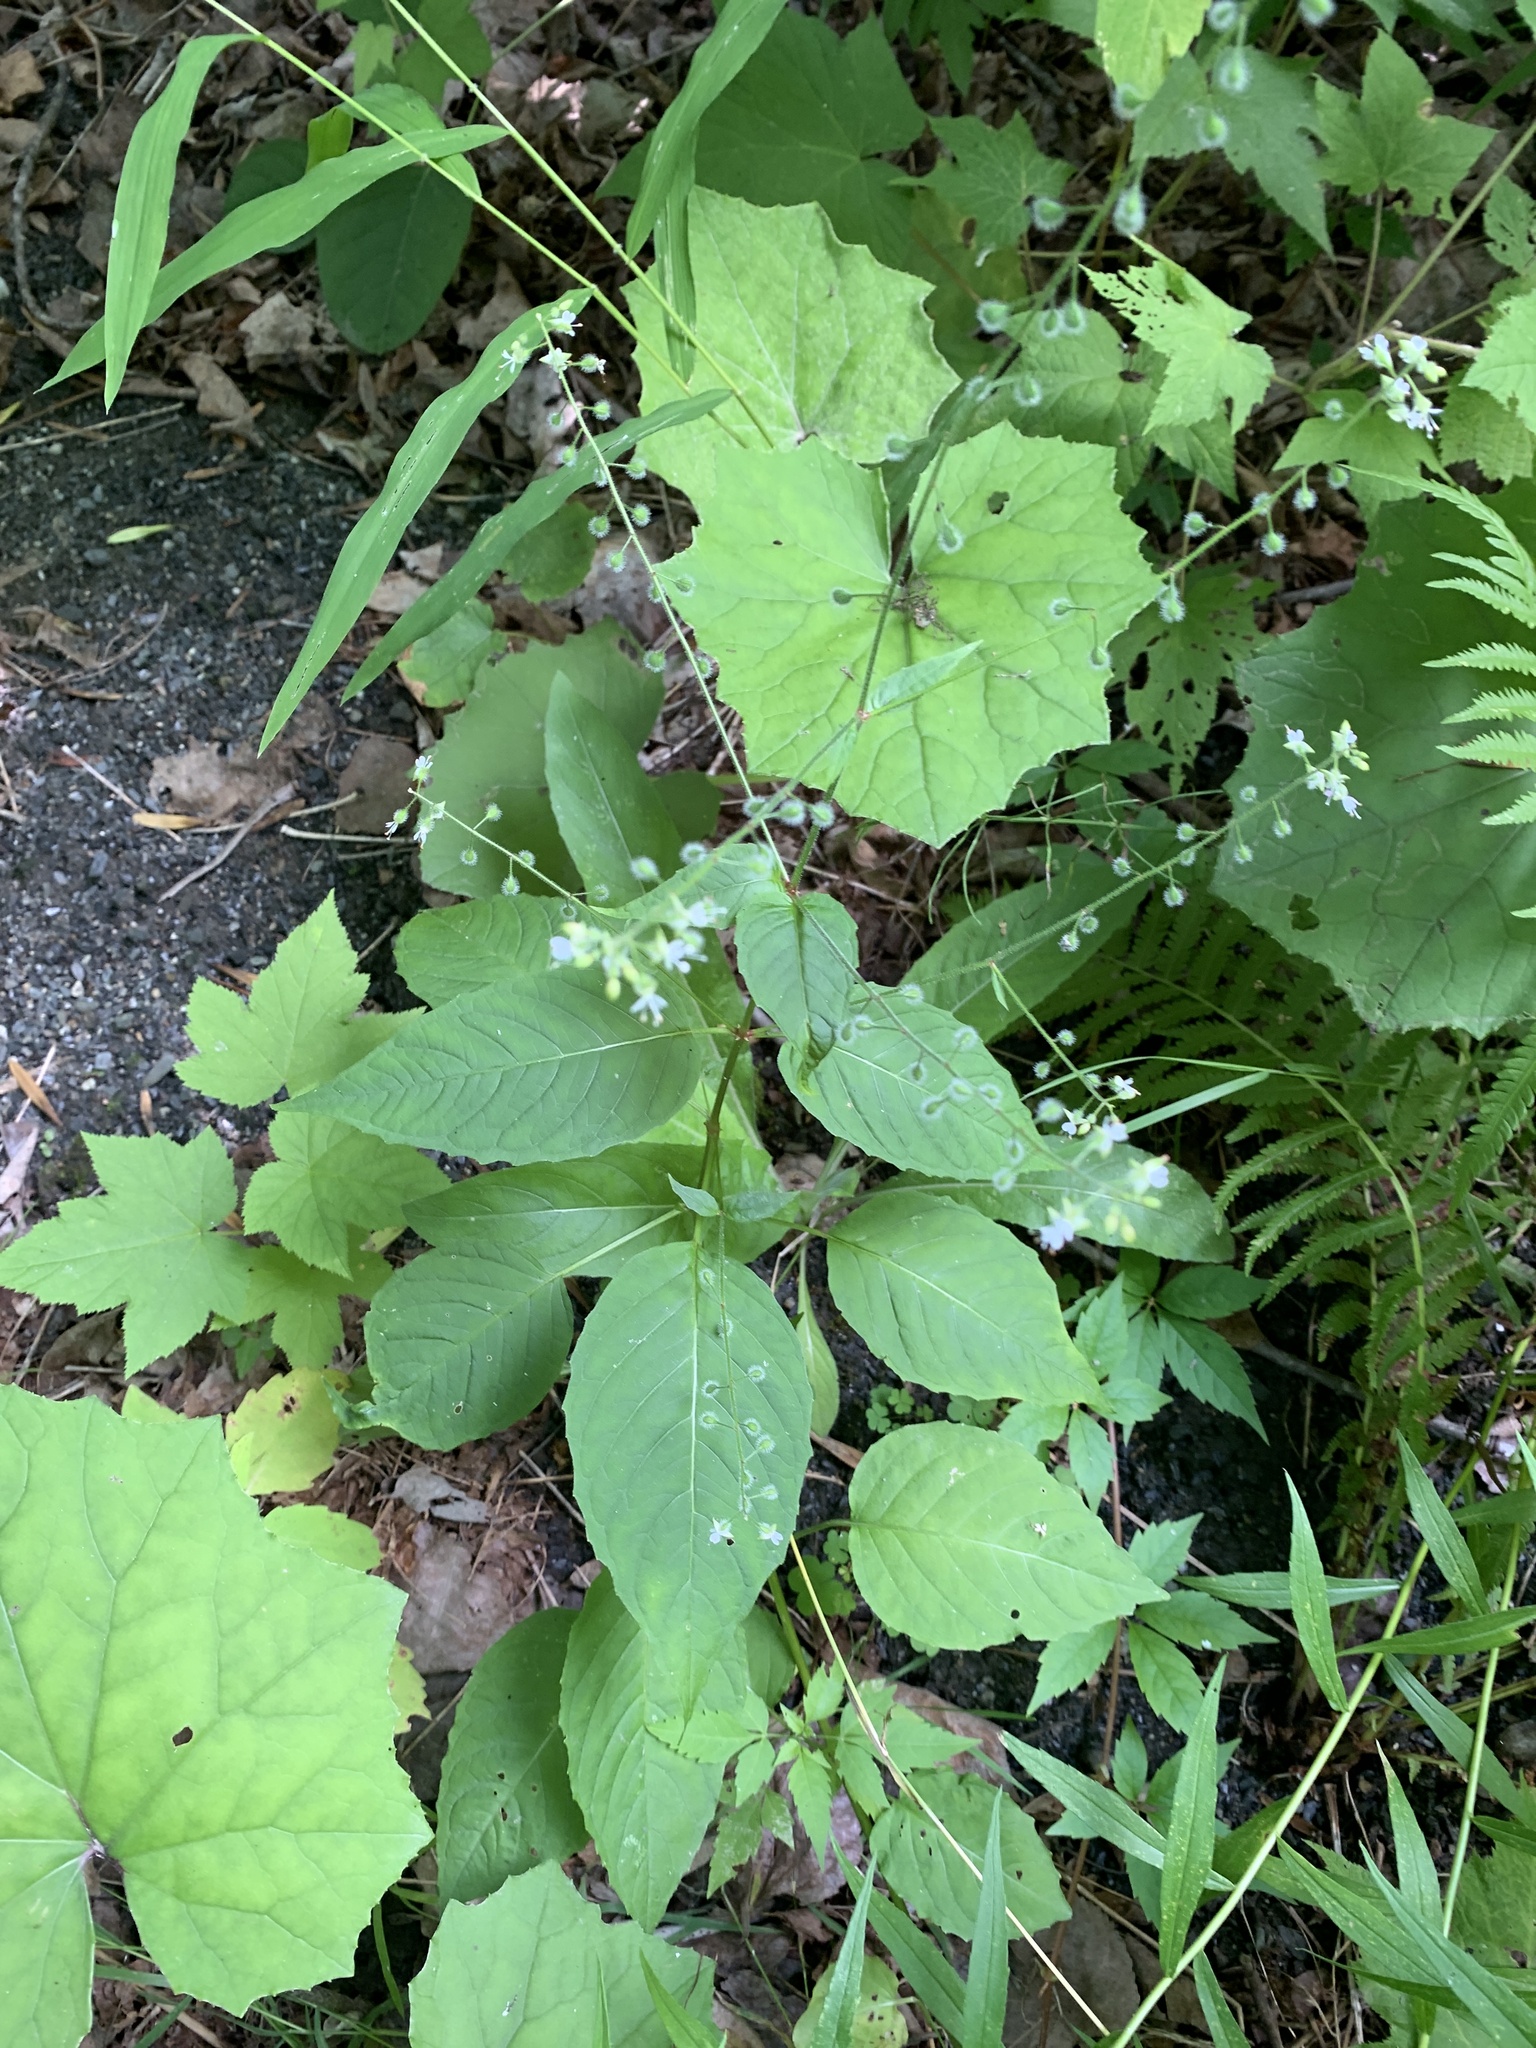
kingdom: Plantae
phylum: Tracheophyta
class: Magnoliopsida
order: Myrtales
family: Onagraceae
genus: Circaea
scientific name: Circaea canadensis
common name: Broad-leaved enchanter's nightshade
